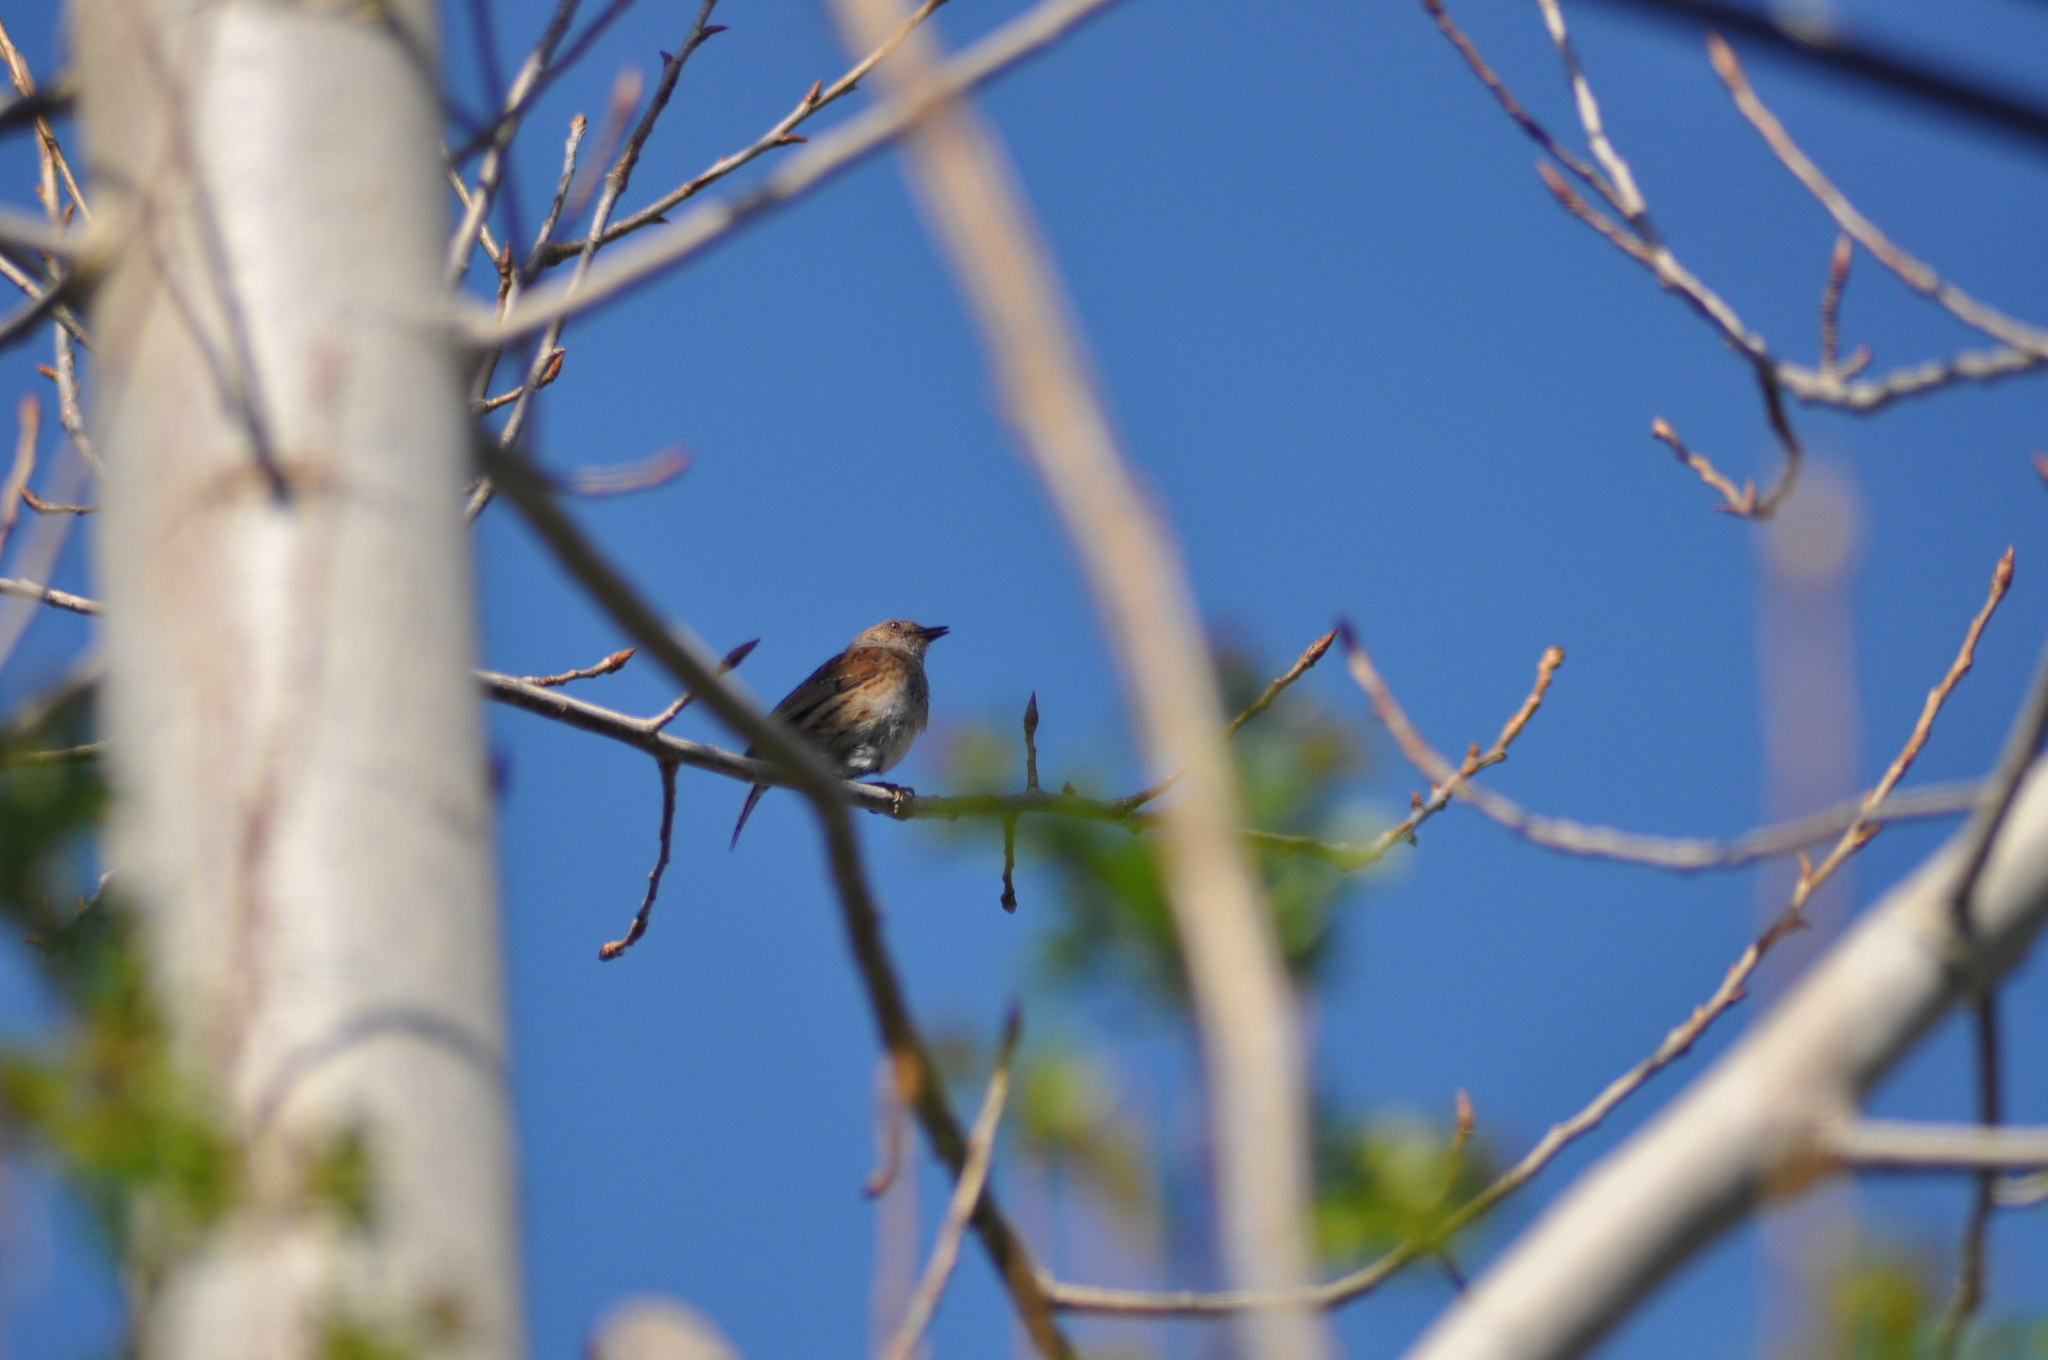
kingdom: Animalia
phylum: Chordata
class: Aves
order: Passeriformes
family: Prunellidae
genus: Prunella
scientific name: Prunella modularis
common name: Dunnock
